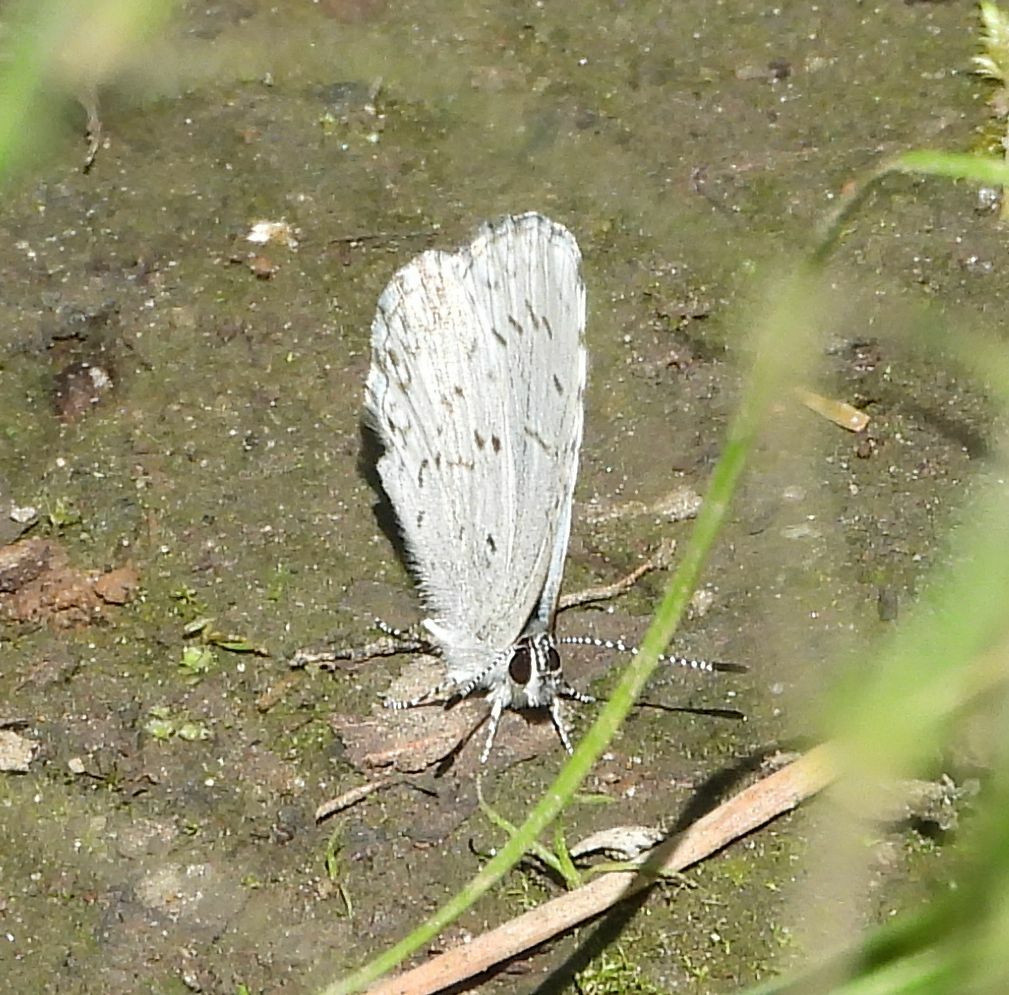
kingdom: Animalia
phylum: Arthropoda
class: Insecta
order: Lepidoptera
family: Lycaenidae
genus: Celastrina
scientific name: Celastrina lucia
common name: Lucia azure
